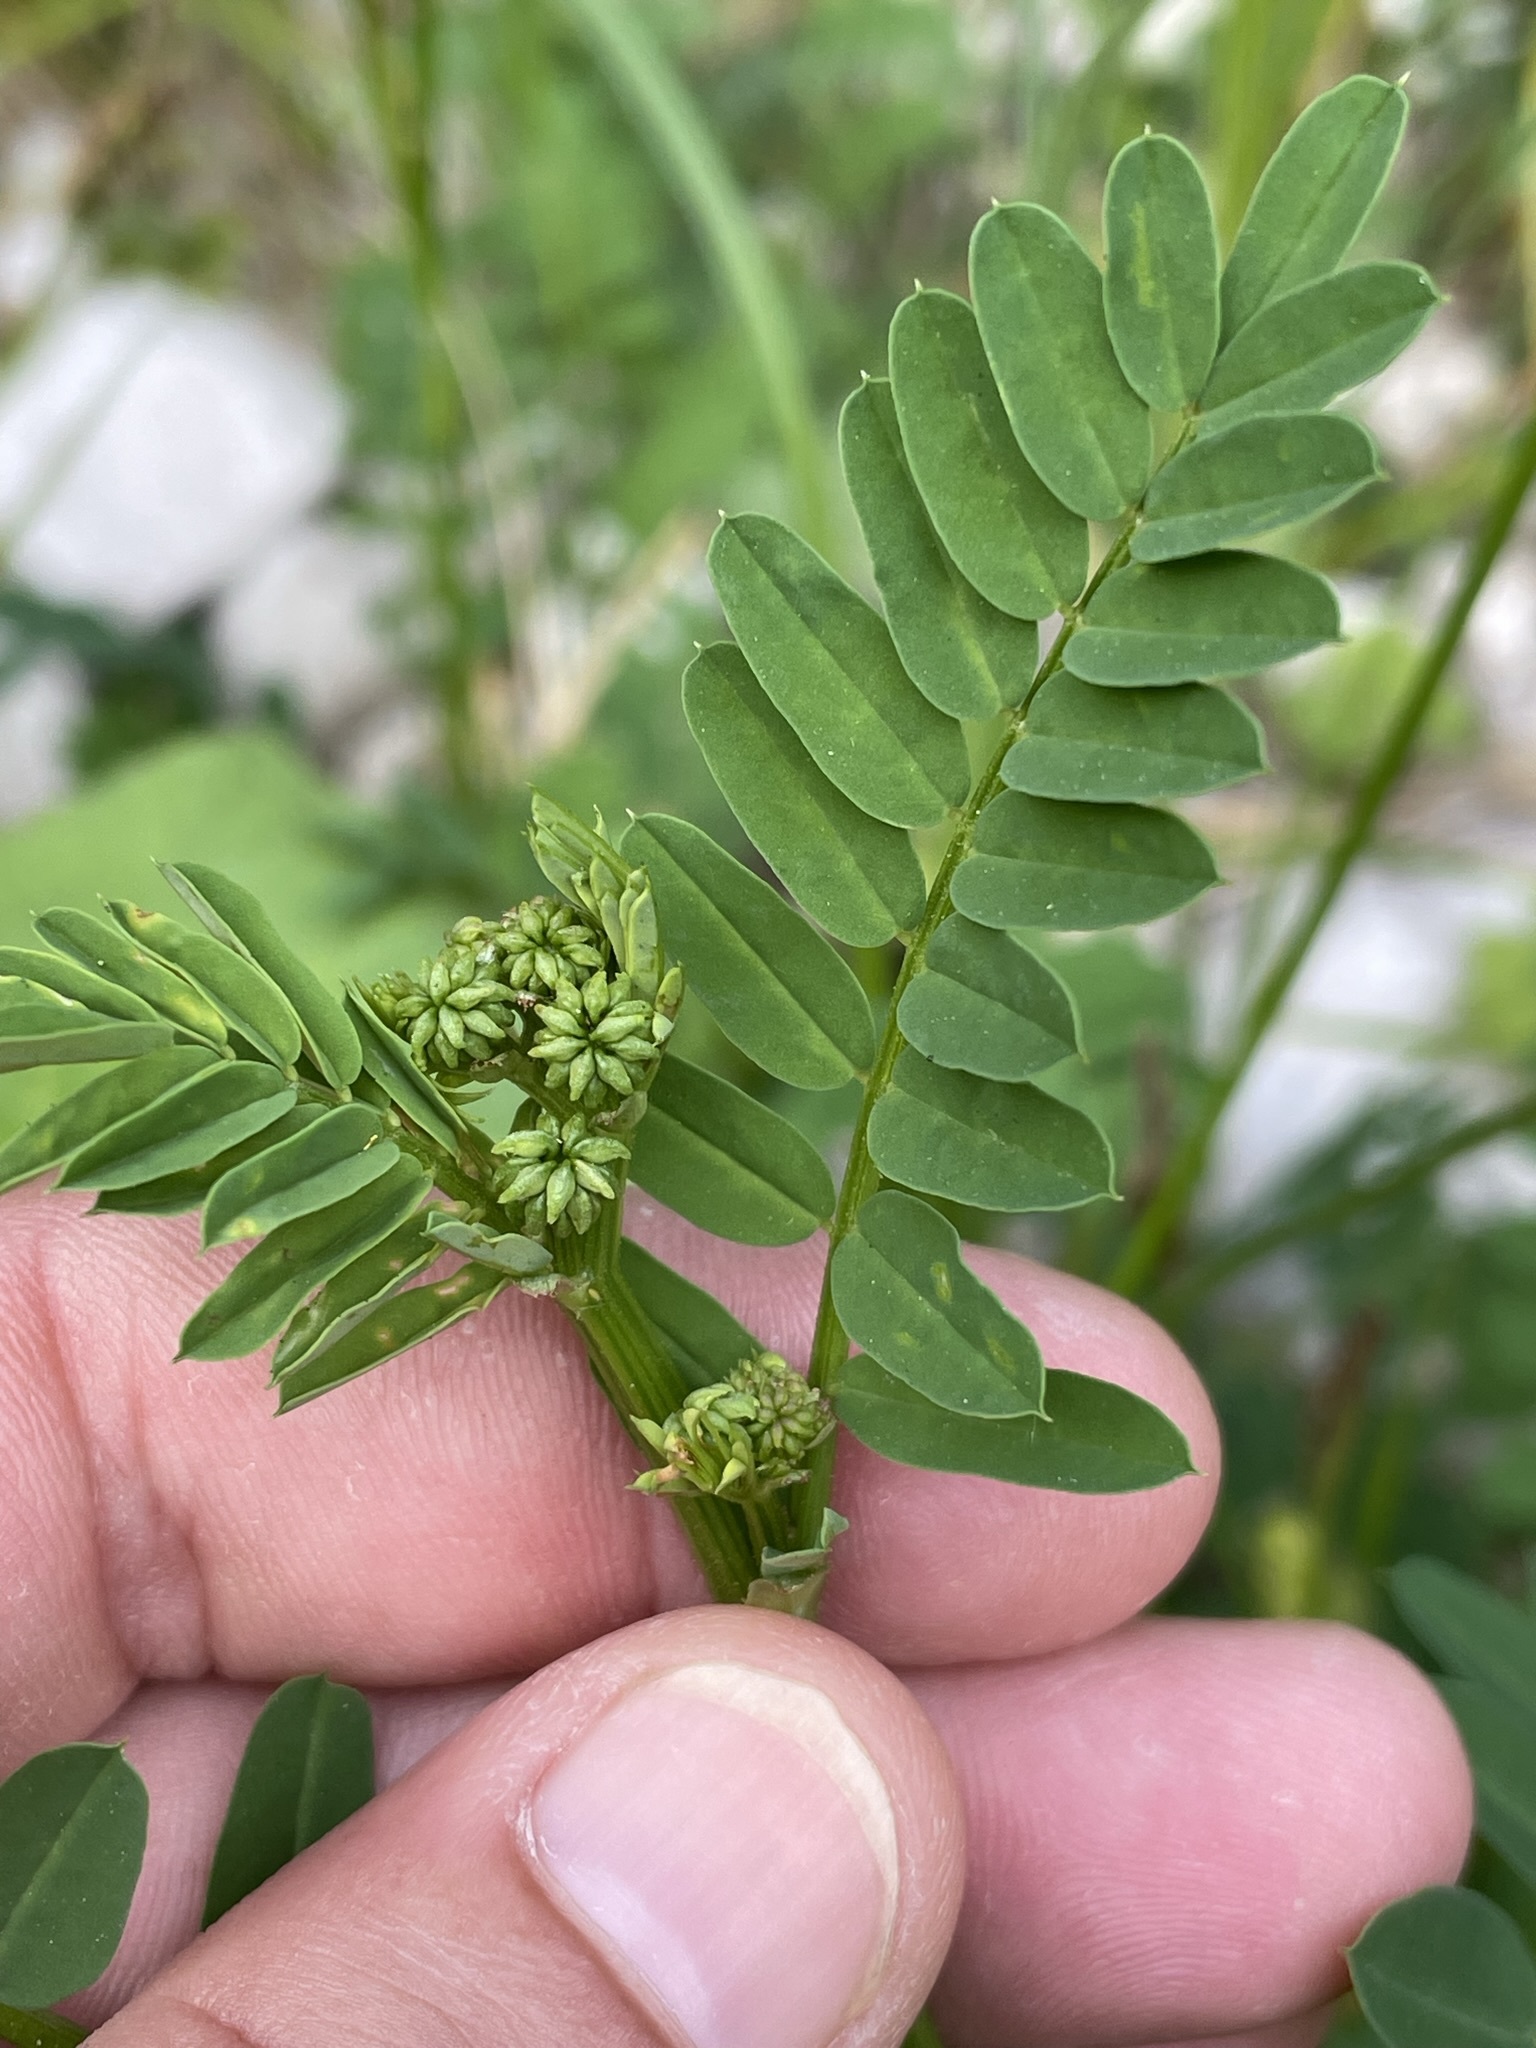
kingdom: Plantae
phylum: Tracheophyta
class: Magnoliopsida
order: Fabales
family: Fabaceae
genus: Coronilla
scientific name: Coronilla varia
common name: Crownvetch
